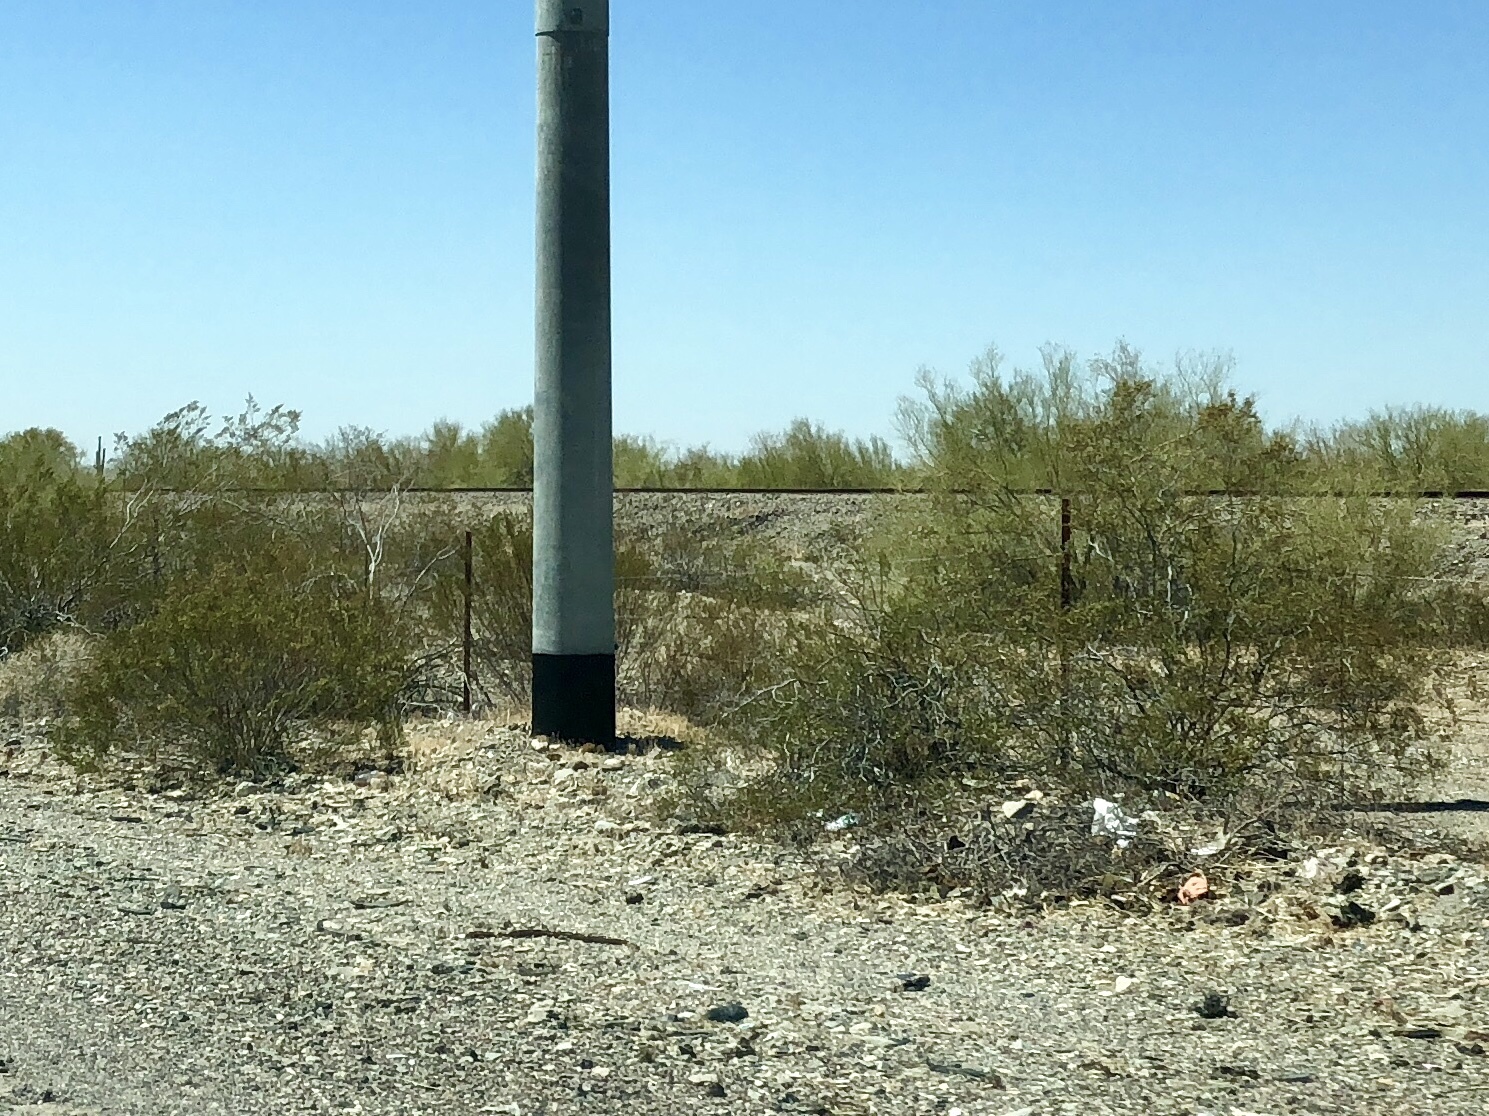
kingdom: Plantae
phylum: Tracheophyta
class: Magnoliopsida
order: Zygophyllales
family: Zygophyllaceae
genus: Larrea
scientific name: Larrea tridentata
